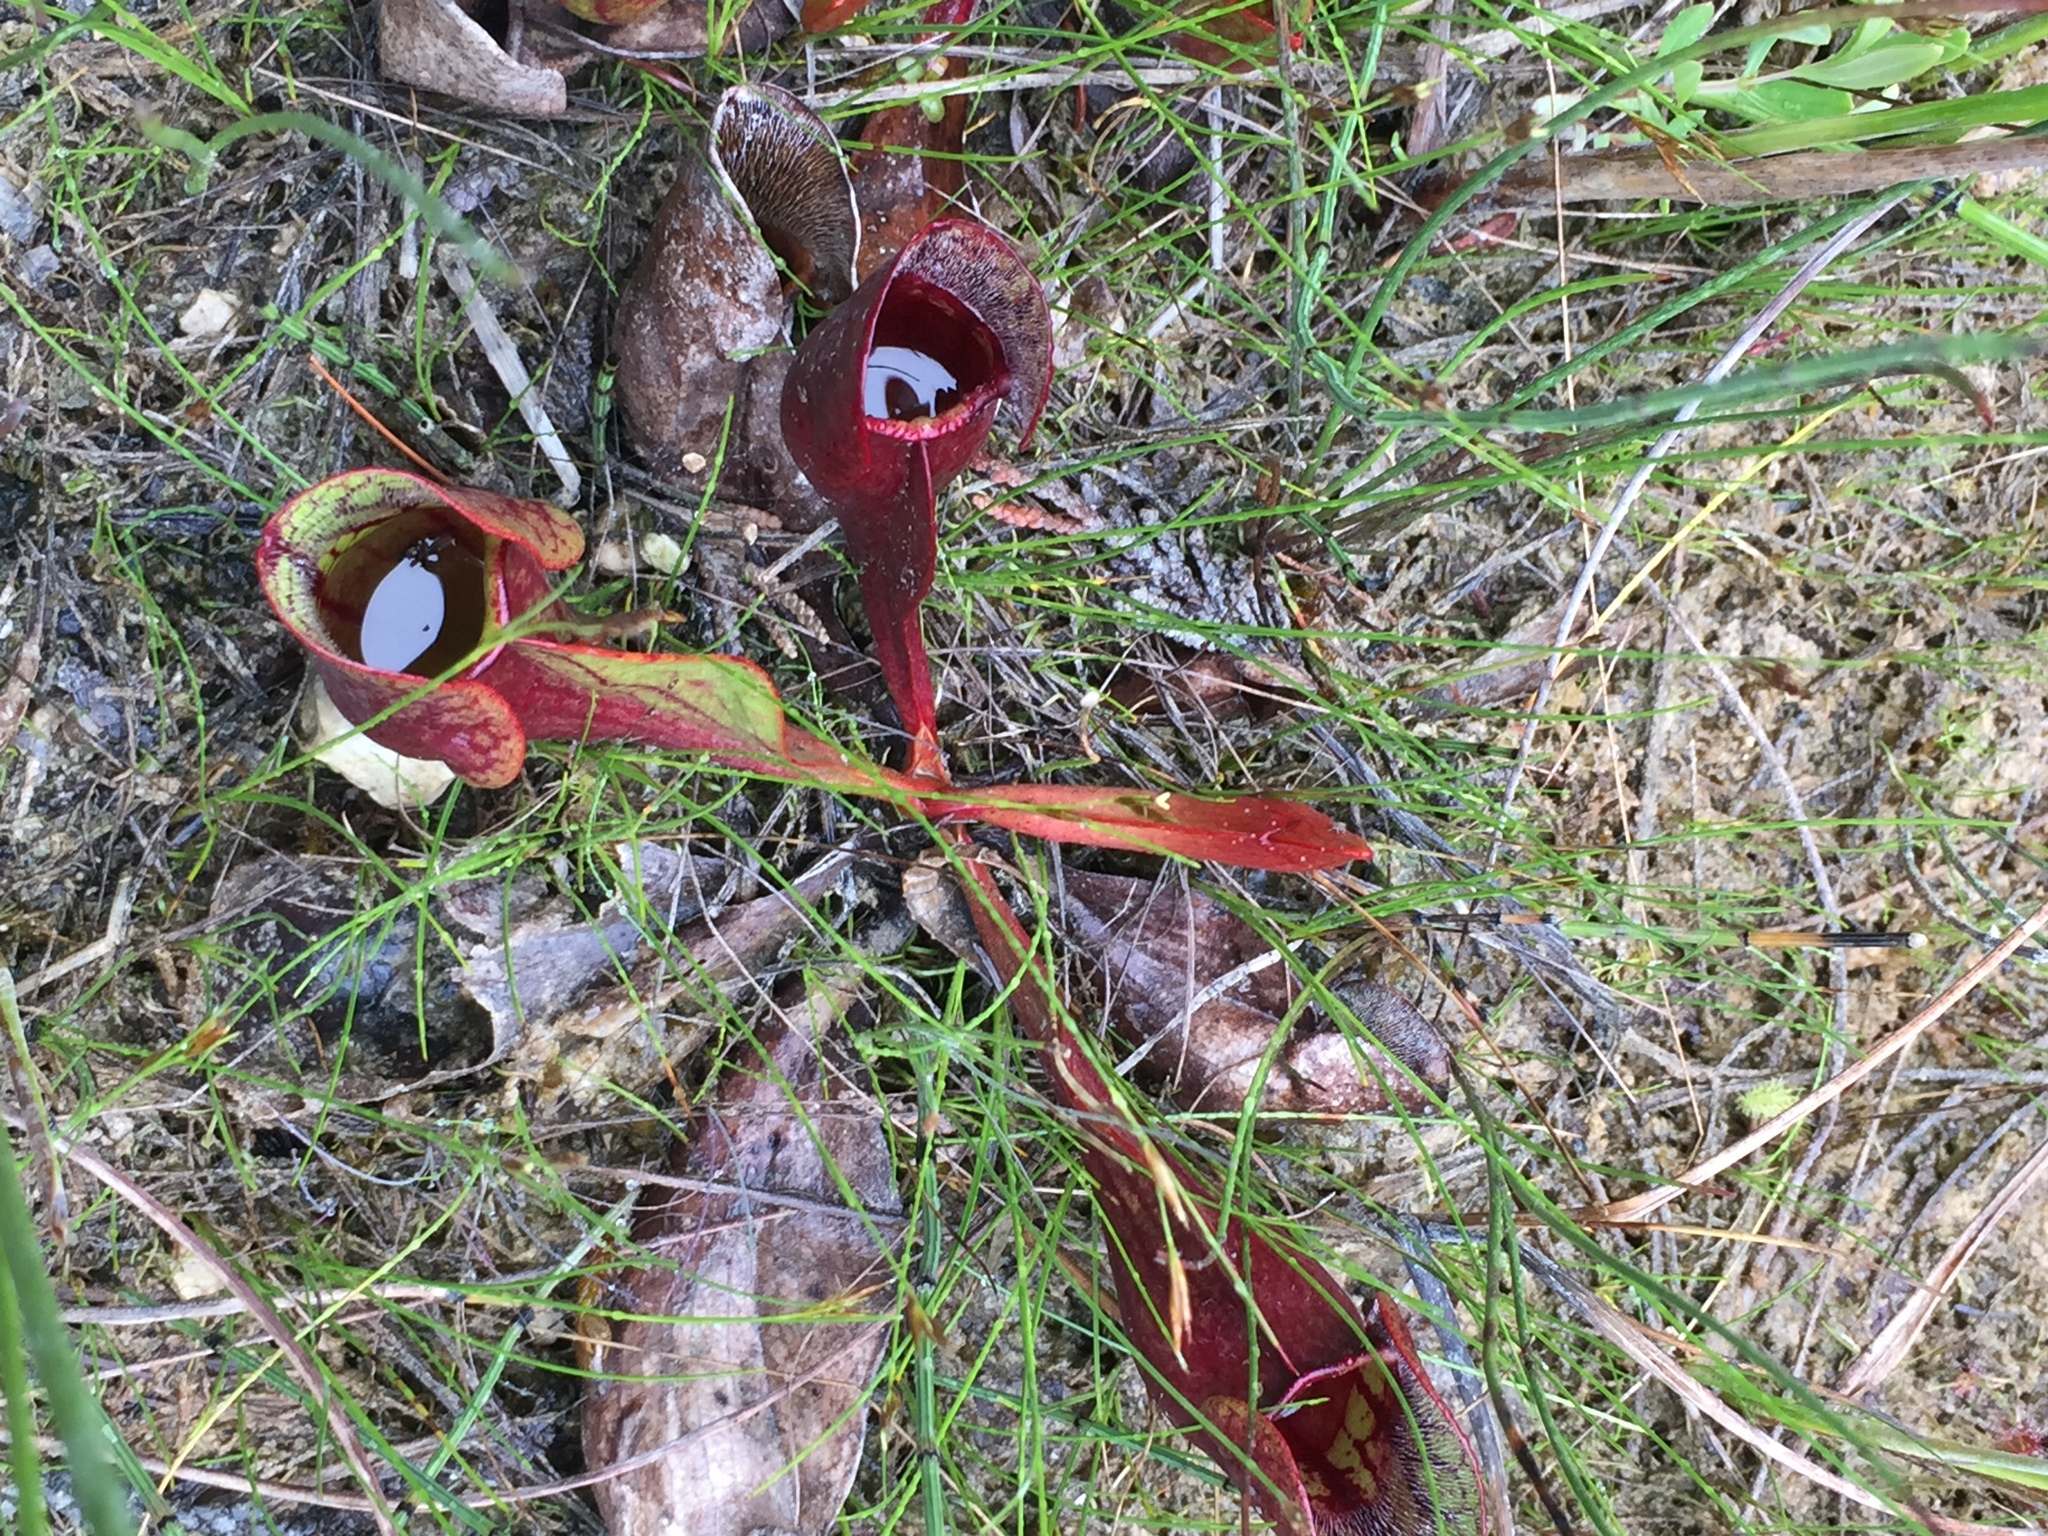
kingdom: Plantae
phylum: Tracheophyta
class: Magnoliopsida
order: Ericales
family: Sarraceniaceae
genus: Sarracenia
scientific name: Sarracenia purpurea
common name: Pitcherplant
